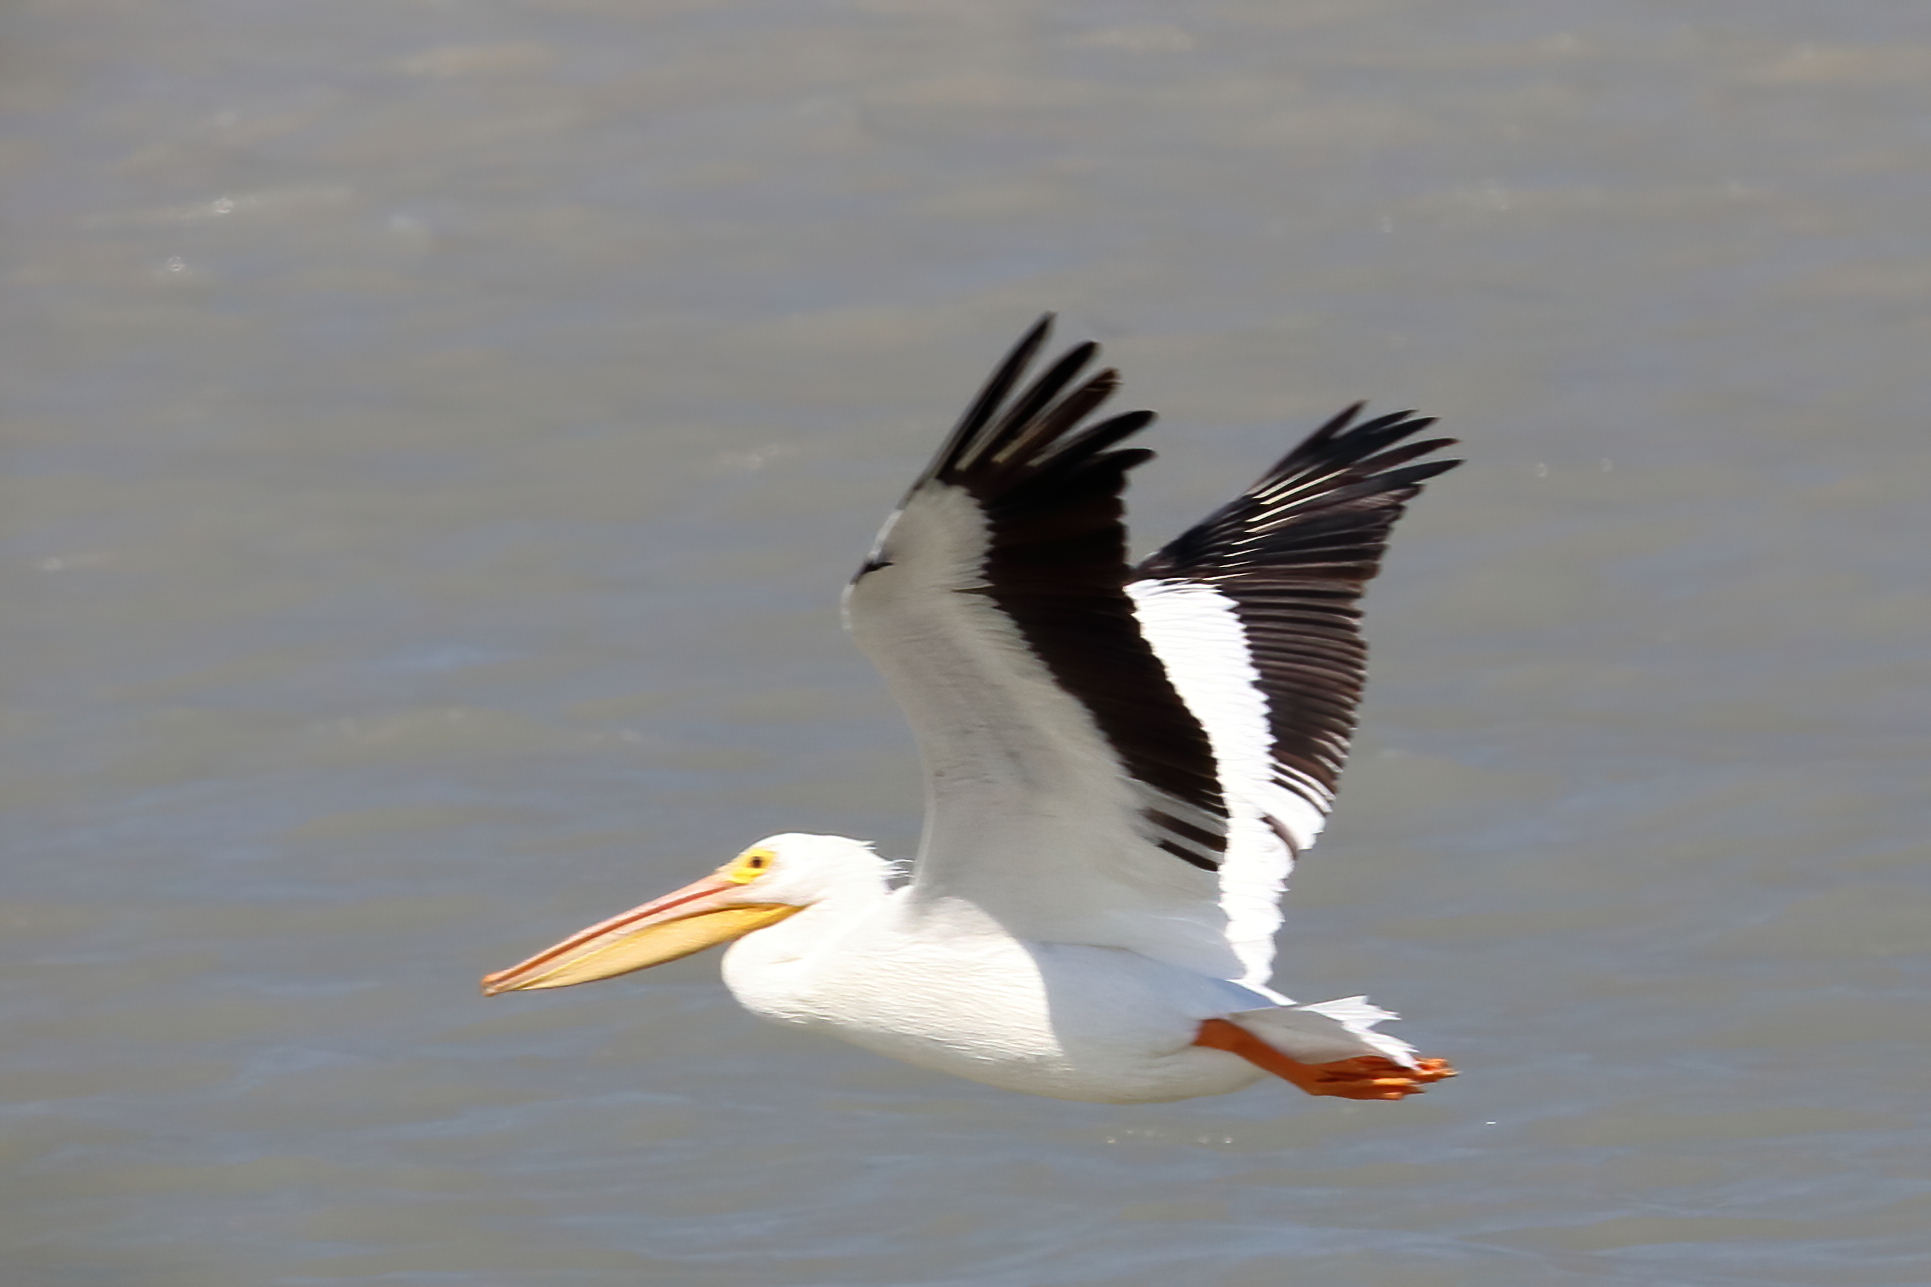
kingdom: Animalia
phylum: Chordata
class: Aves
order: Pelecaniformes
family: Pelecanidae
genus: Pelecanus
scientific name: Pelecanus erythrorhynchos
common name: American white pelican
